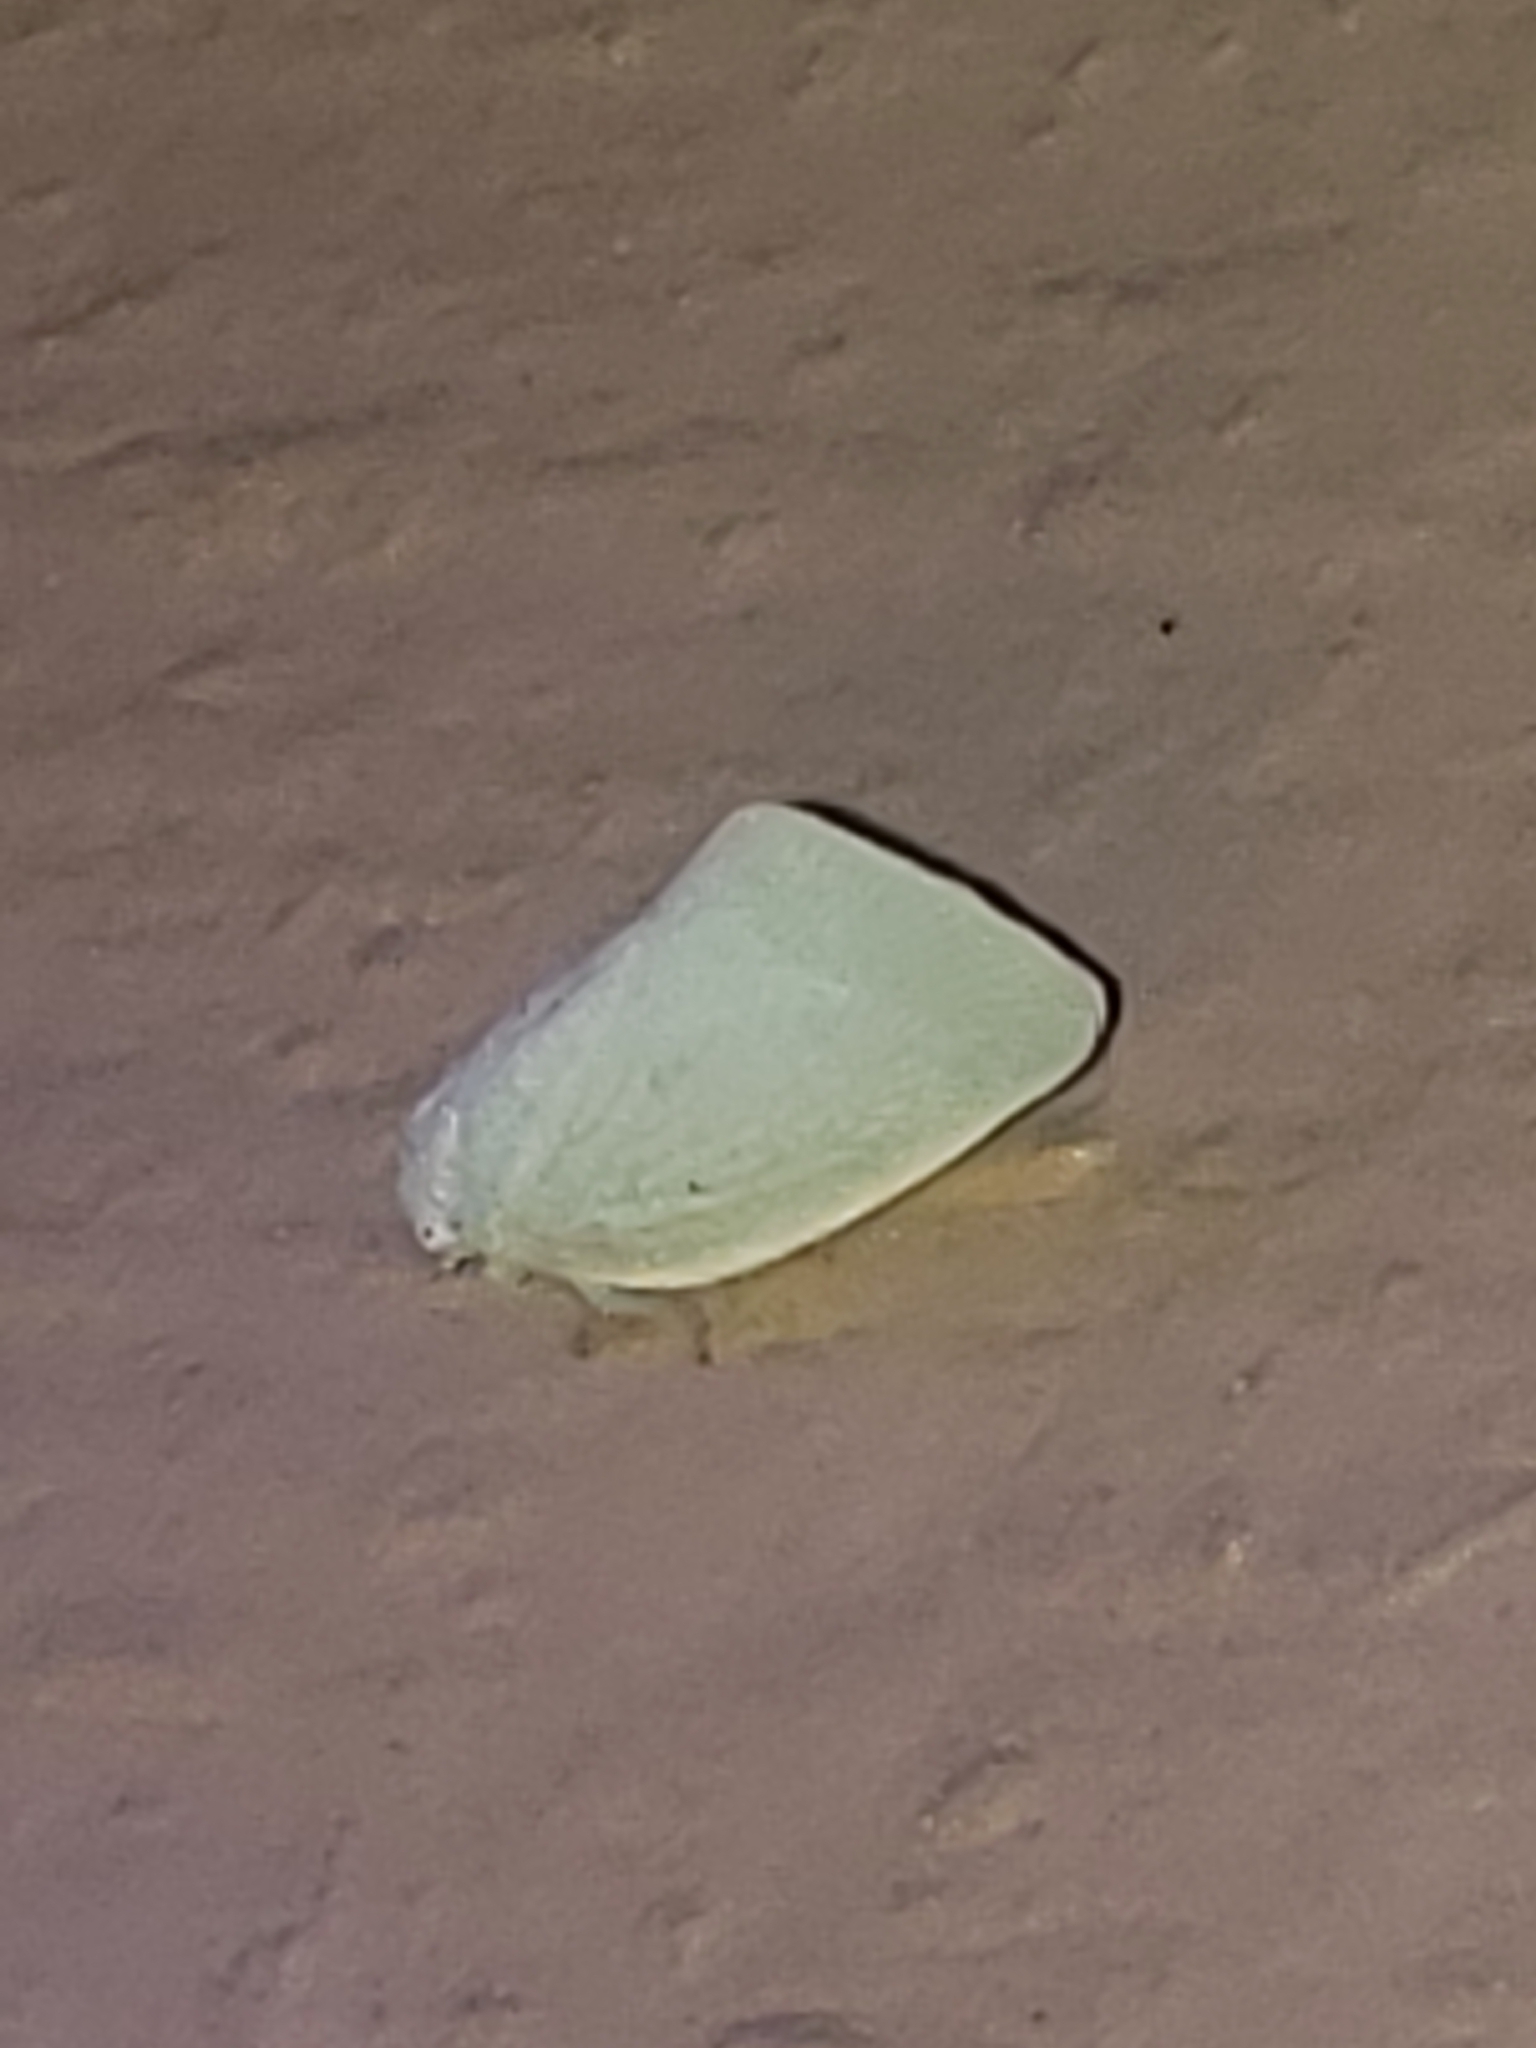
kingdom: Animalia
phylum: Arthropoda
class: Insecta
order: Hemiptera
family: Flatidae
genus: Flatormenis
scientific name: Flatormenis proxima
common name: Northern flatid planthopper
